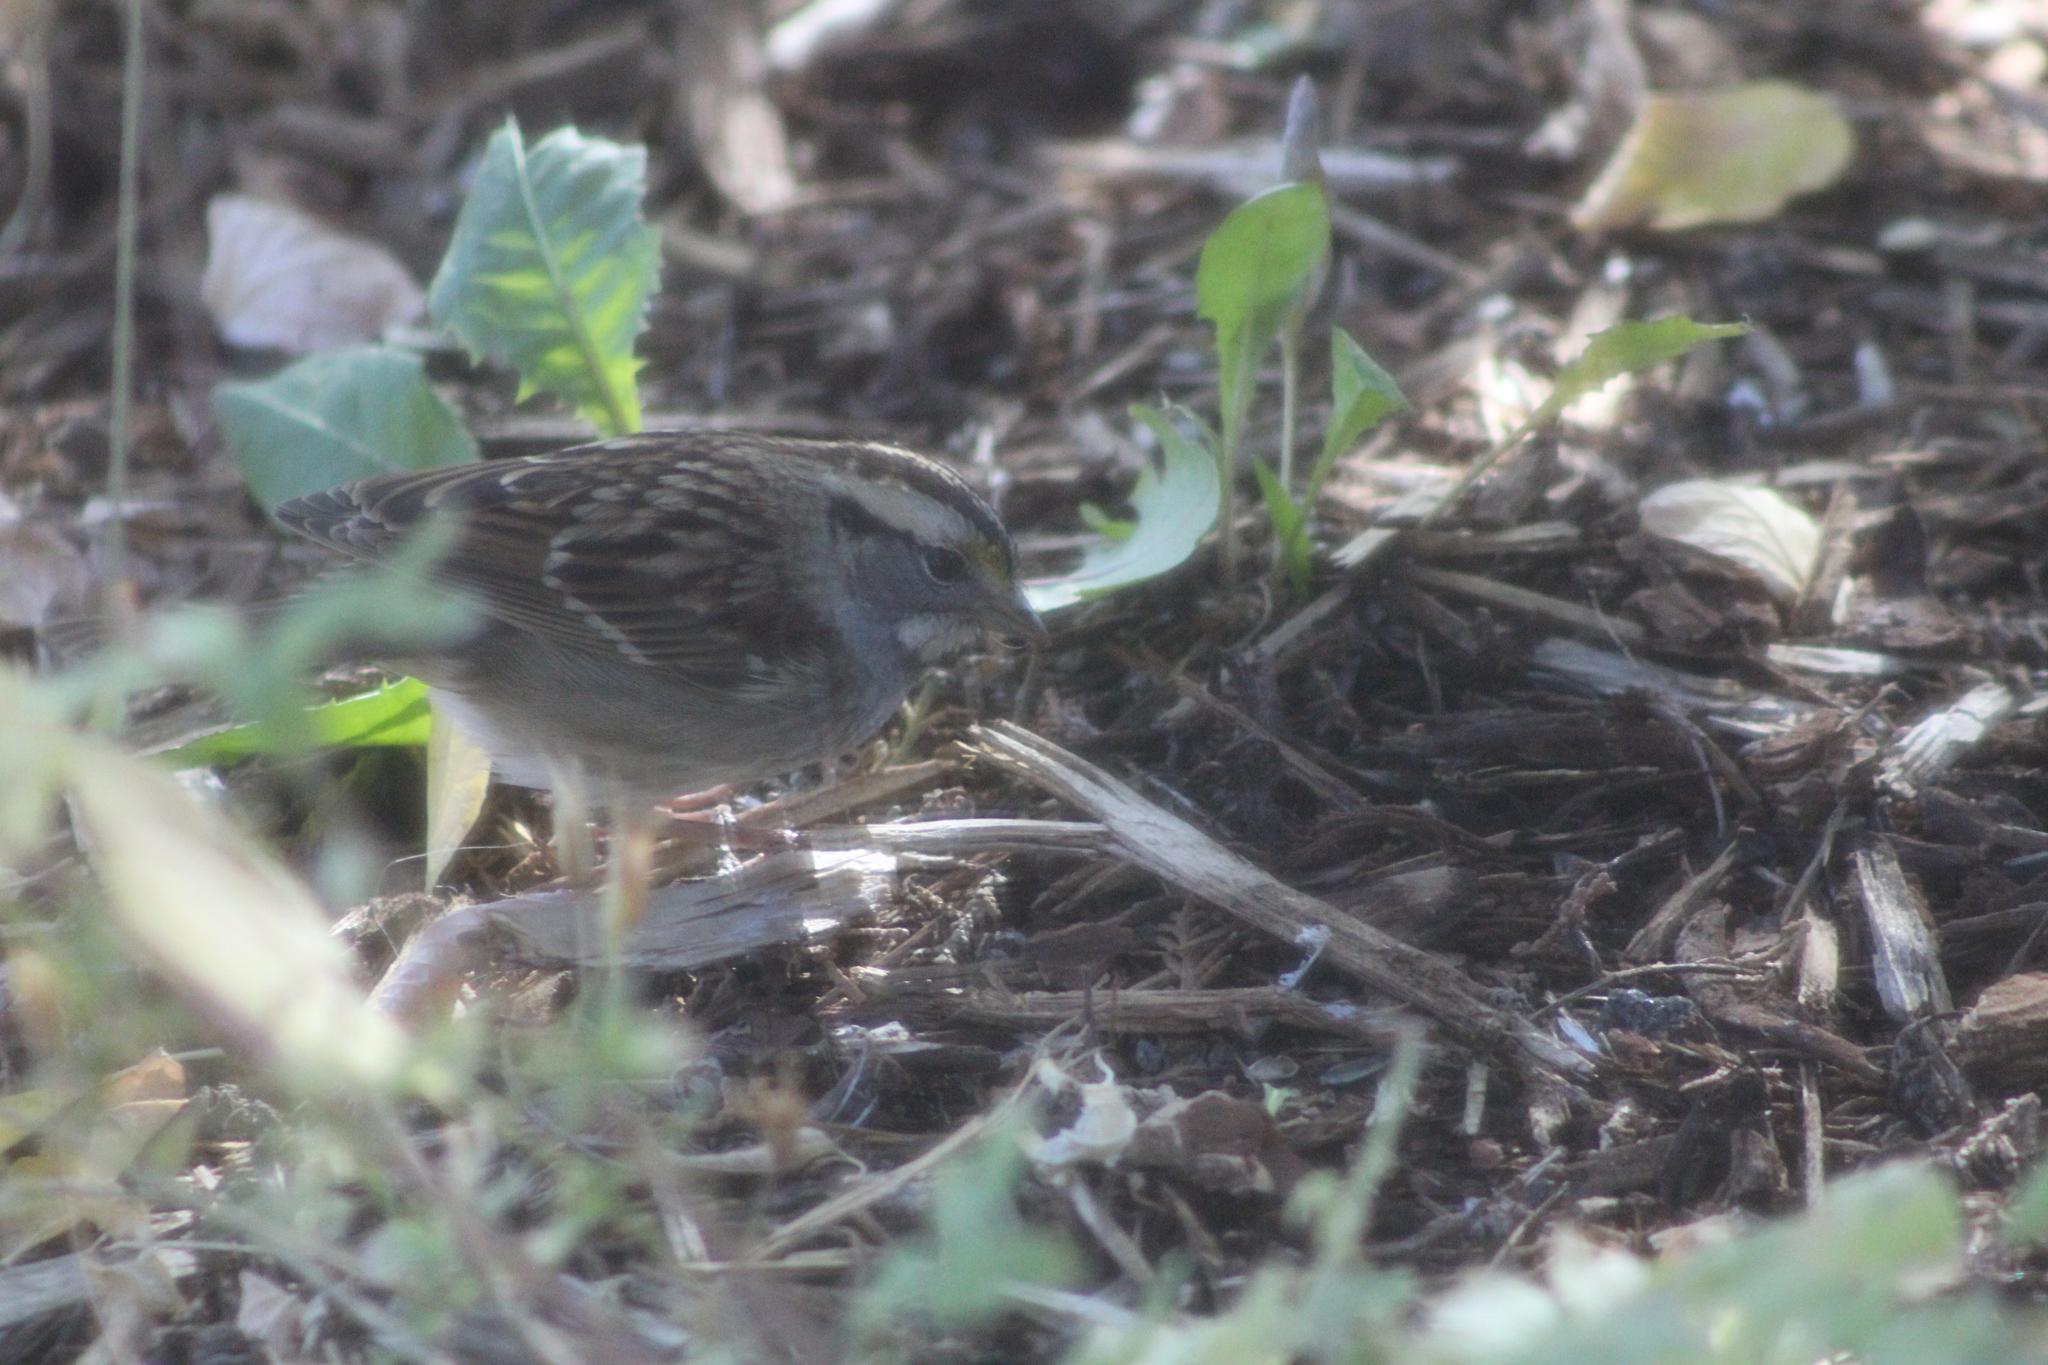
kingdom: Animalia
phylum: Chordata
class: Aves
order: Passeriformes
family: Passerellidae
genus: Zonotrichia
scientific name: Zonotrichia albicollis
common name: White-throated sparrow
